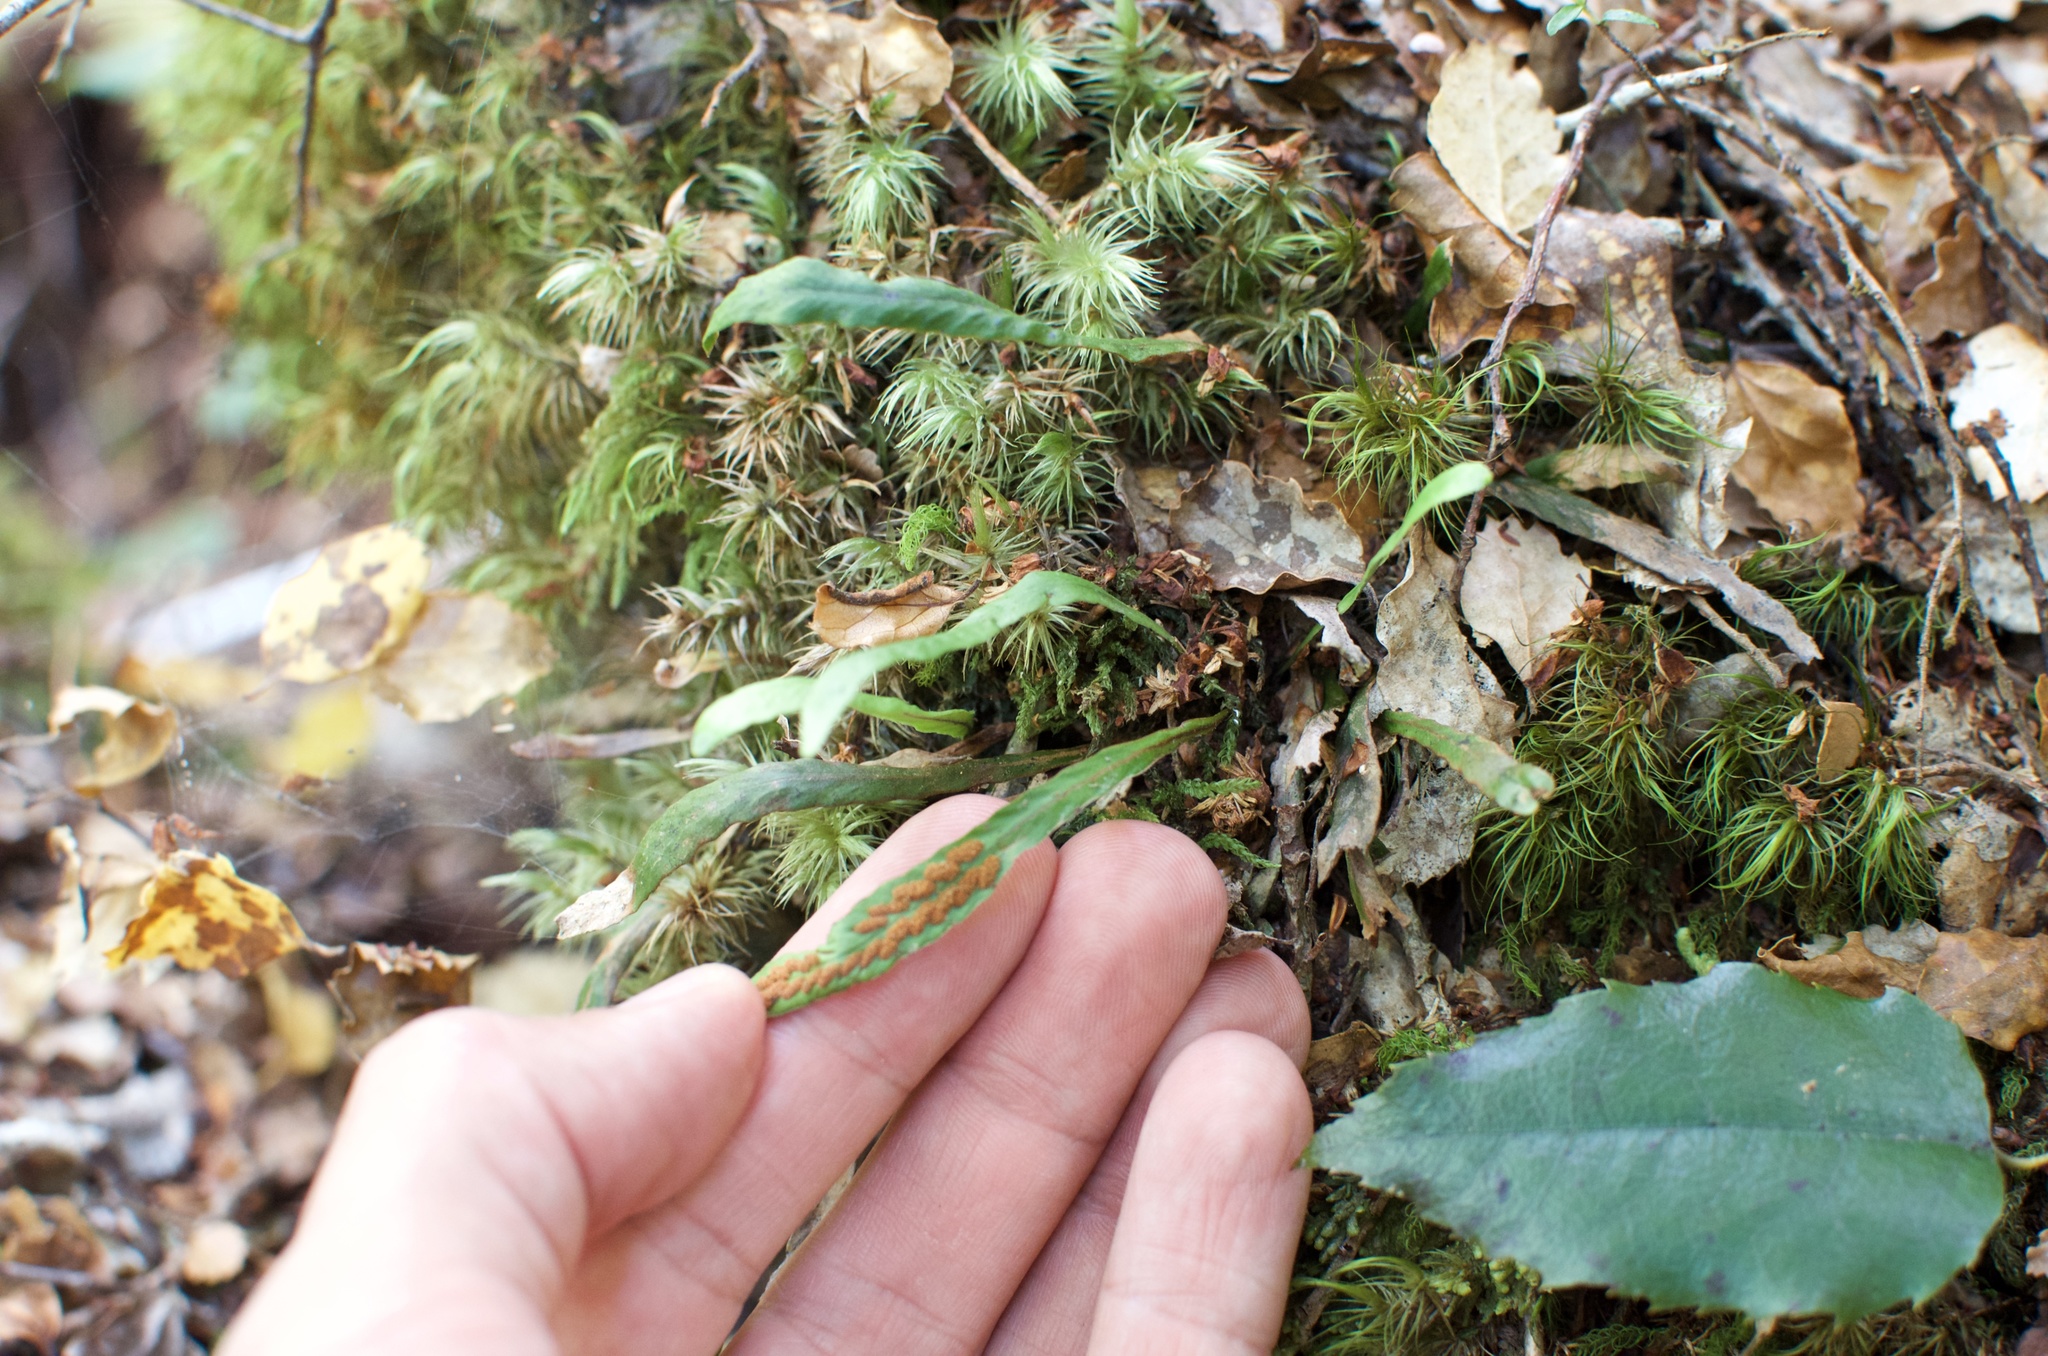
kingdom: Plantae
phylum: Tracheophyta
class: Polypodiopsida
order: Polypodiales
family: Polypodiaceae
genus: Notogrammitis
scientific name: Notogrammitis billardierei
